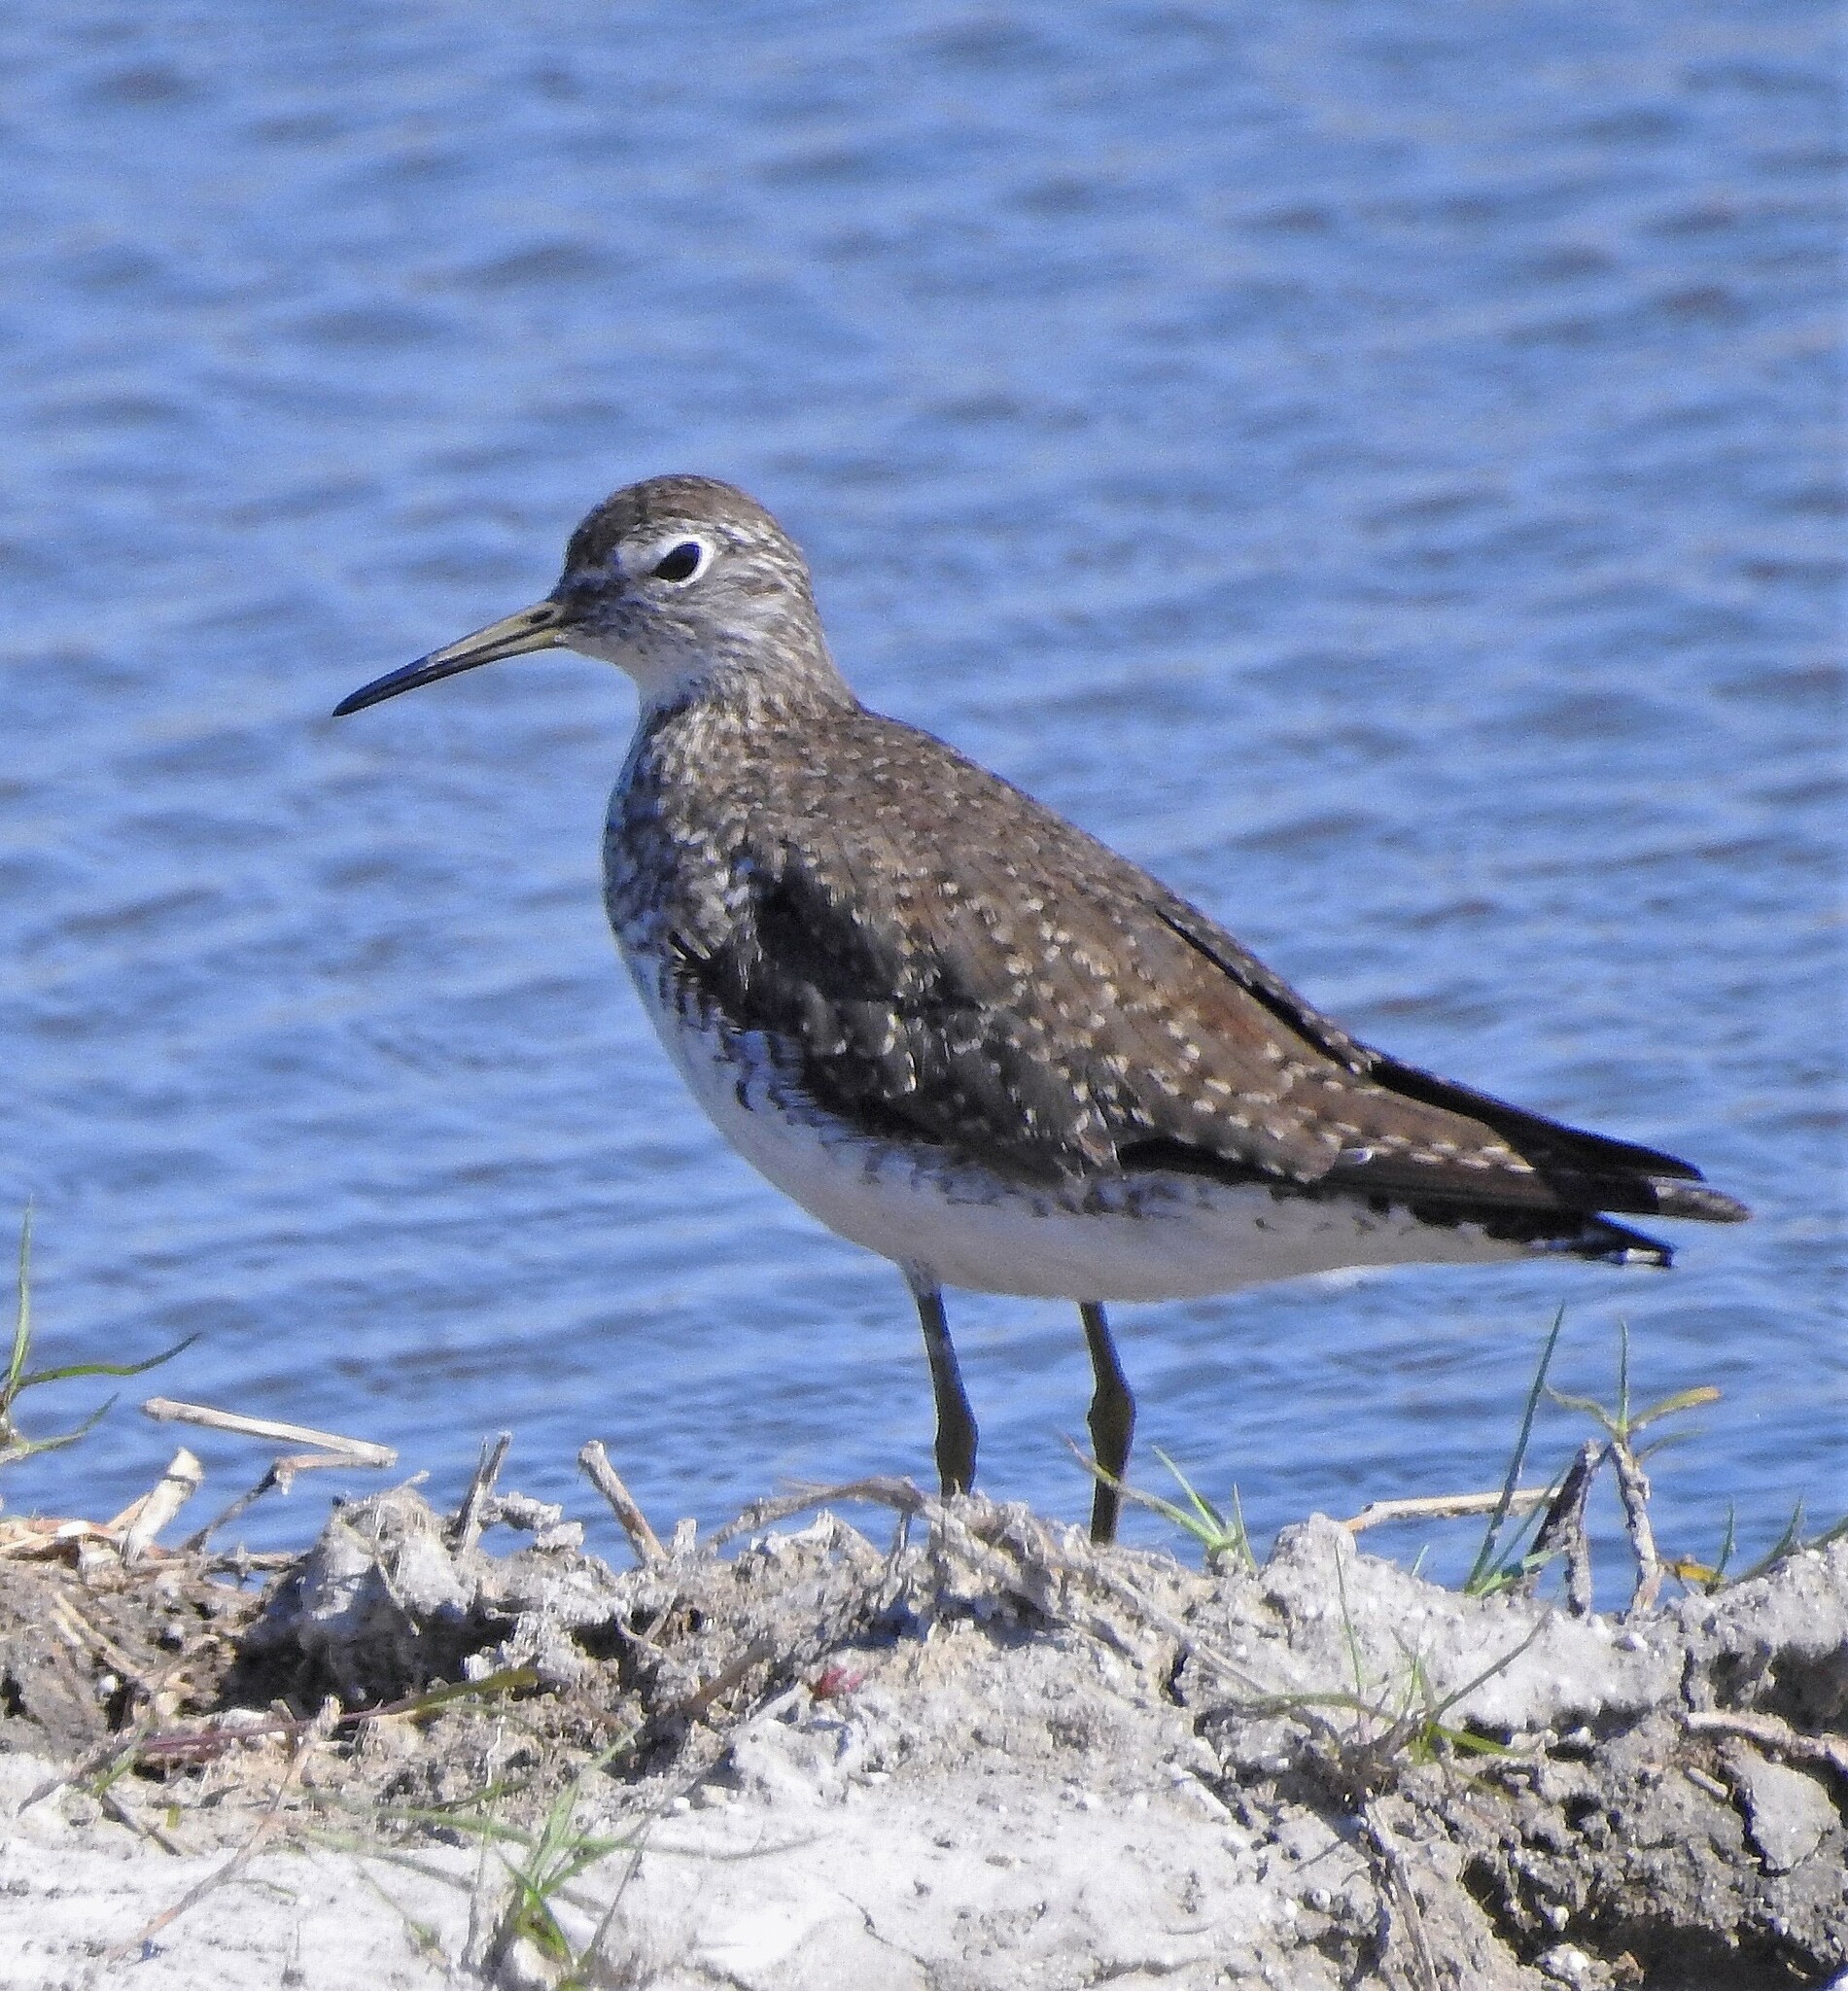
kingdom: Animalia
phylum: Chordata
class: Aves
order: Charadriiformes
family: Scolopacidae
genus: Tringa
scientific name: Tringa solitaria
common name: Solitary sandpiper
